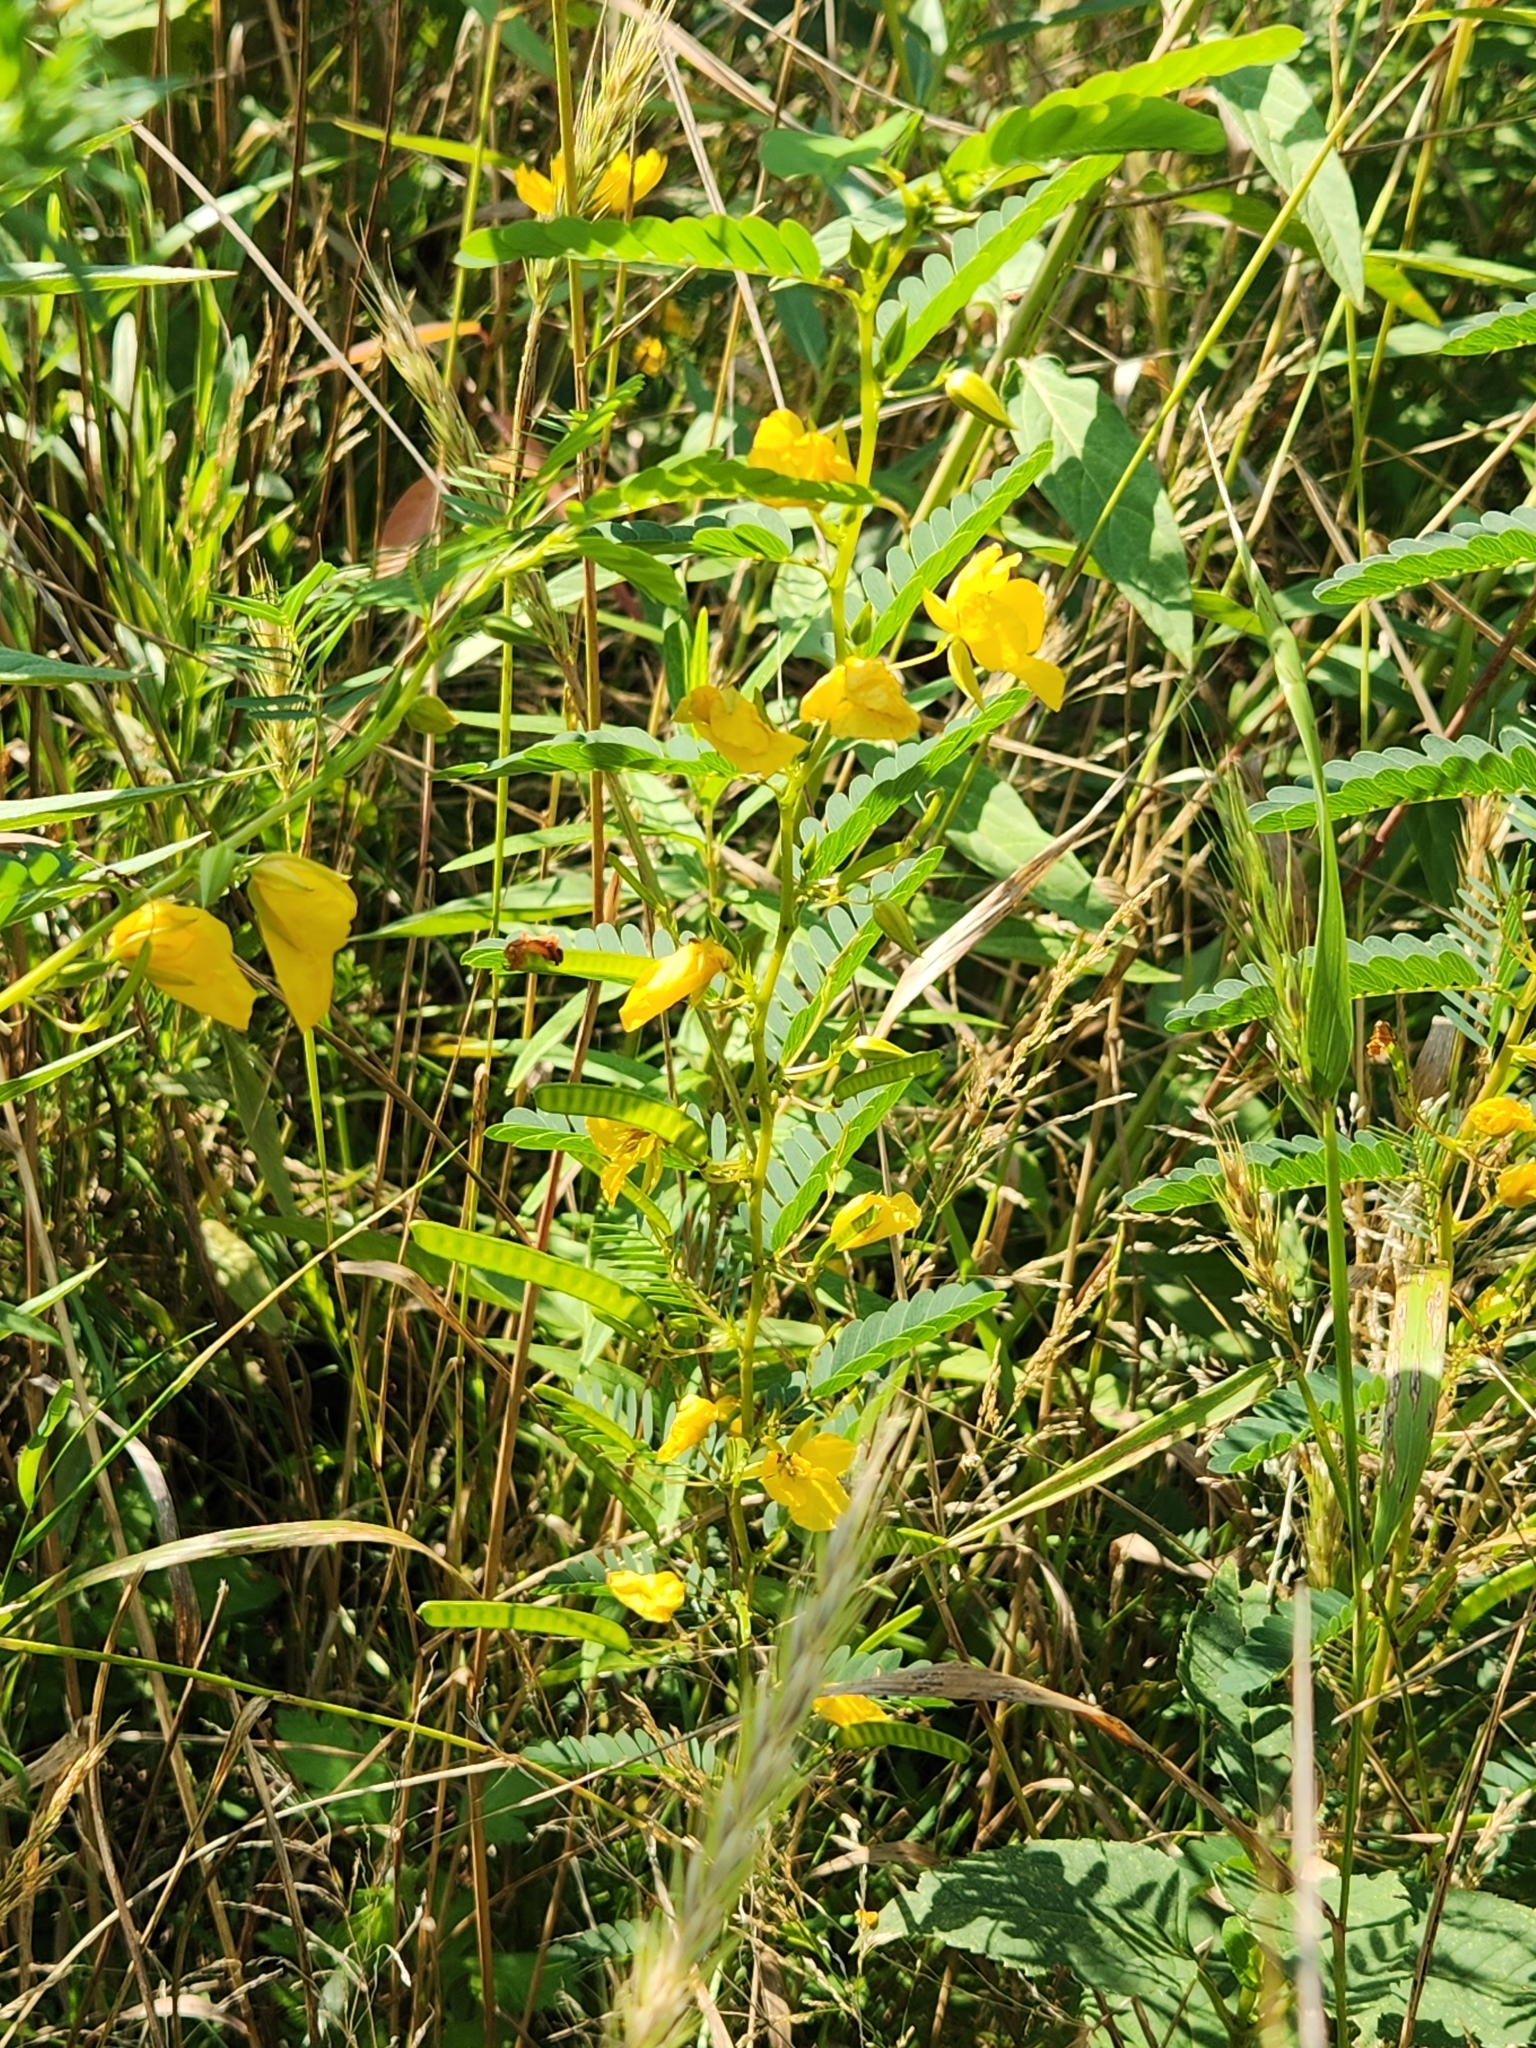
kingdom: Plantae
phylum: Tracheophyta
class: Magnoliopsida
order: Fabales
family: Fabaceae
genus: Chamaecrista
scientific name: Chamaecrista fasciculata
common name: Golden cassia
